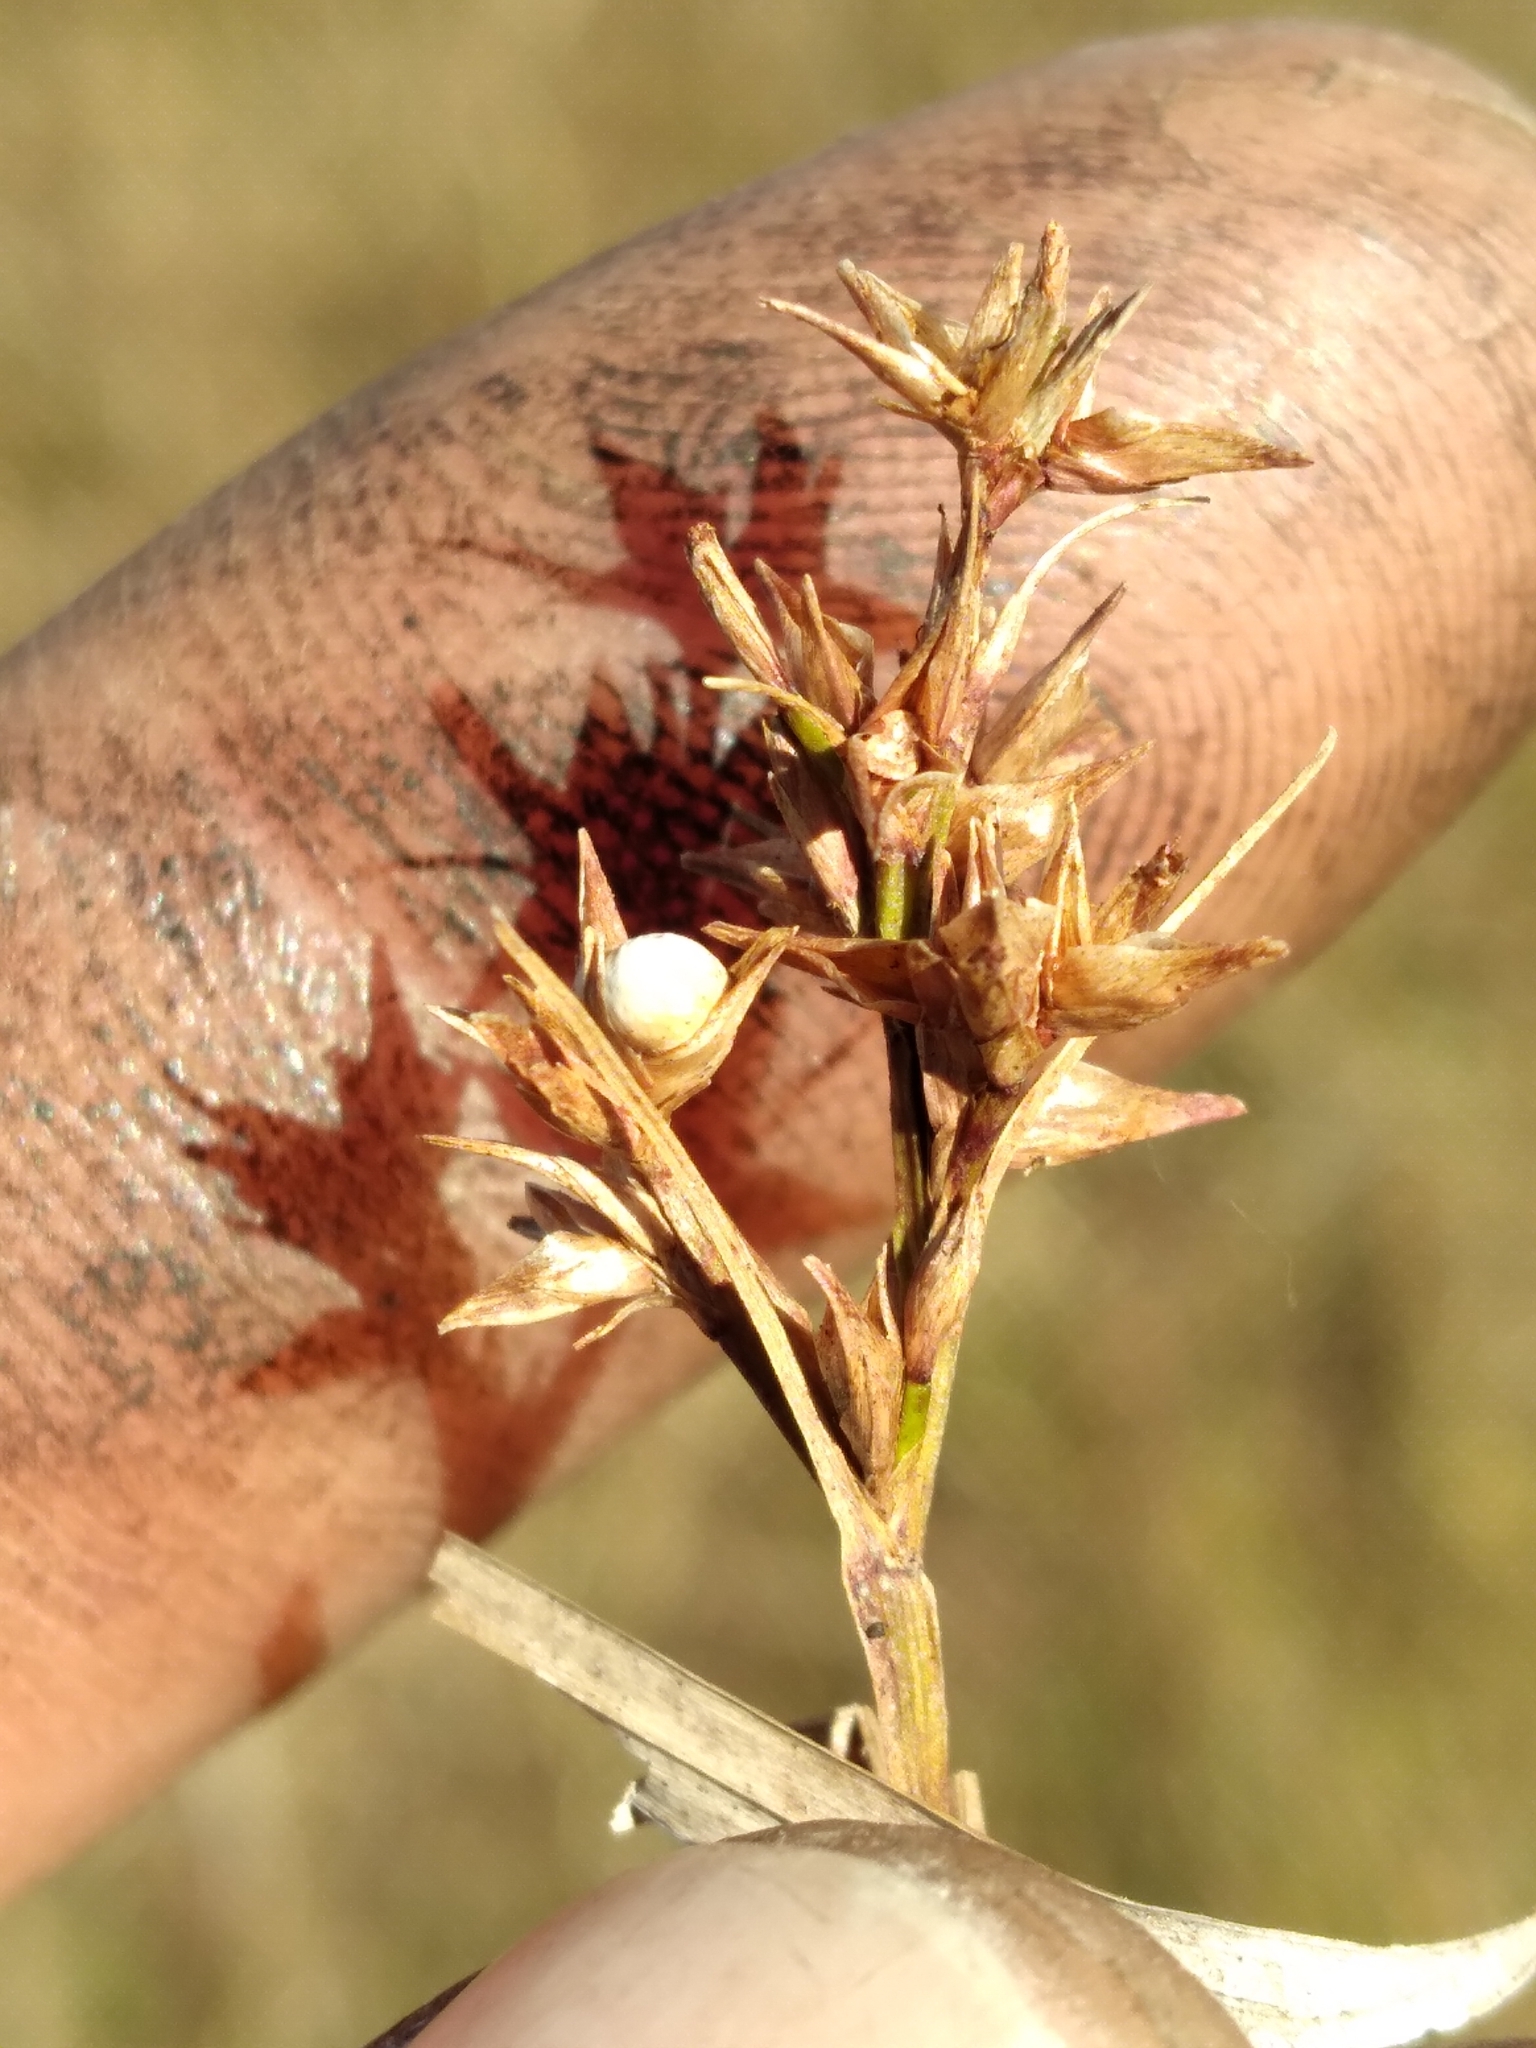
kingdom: Plantae
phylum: Tracheophyta
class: Liliopsida
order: Poales
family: Cyperaceae
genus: Scleria
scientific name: Scleria muehlenbergii
